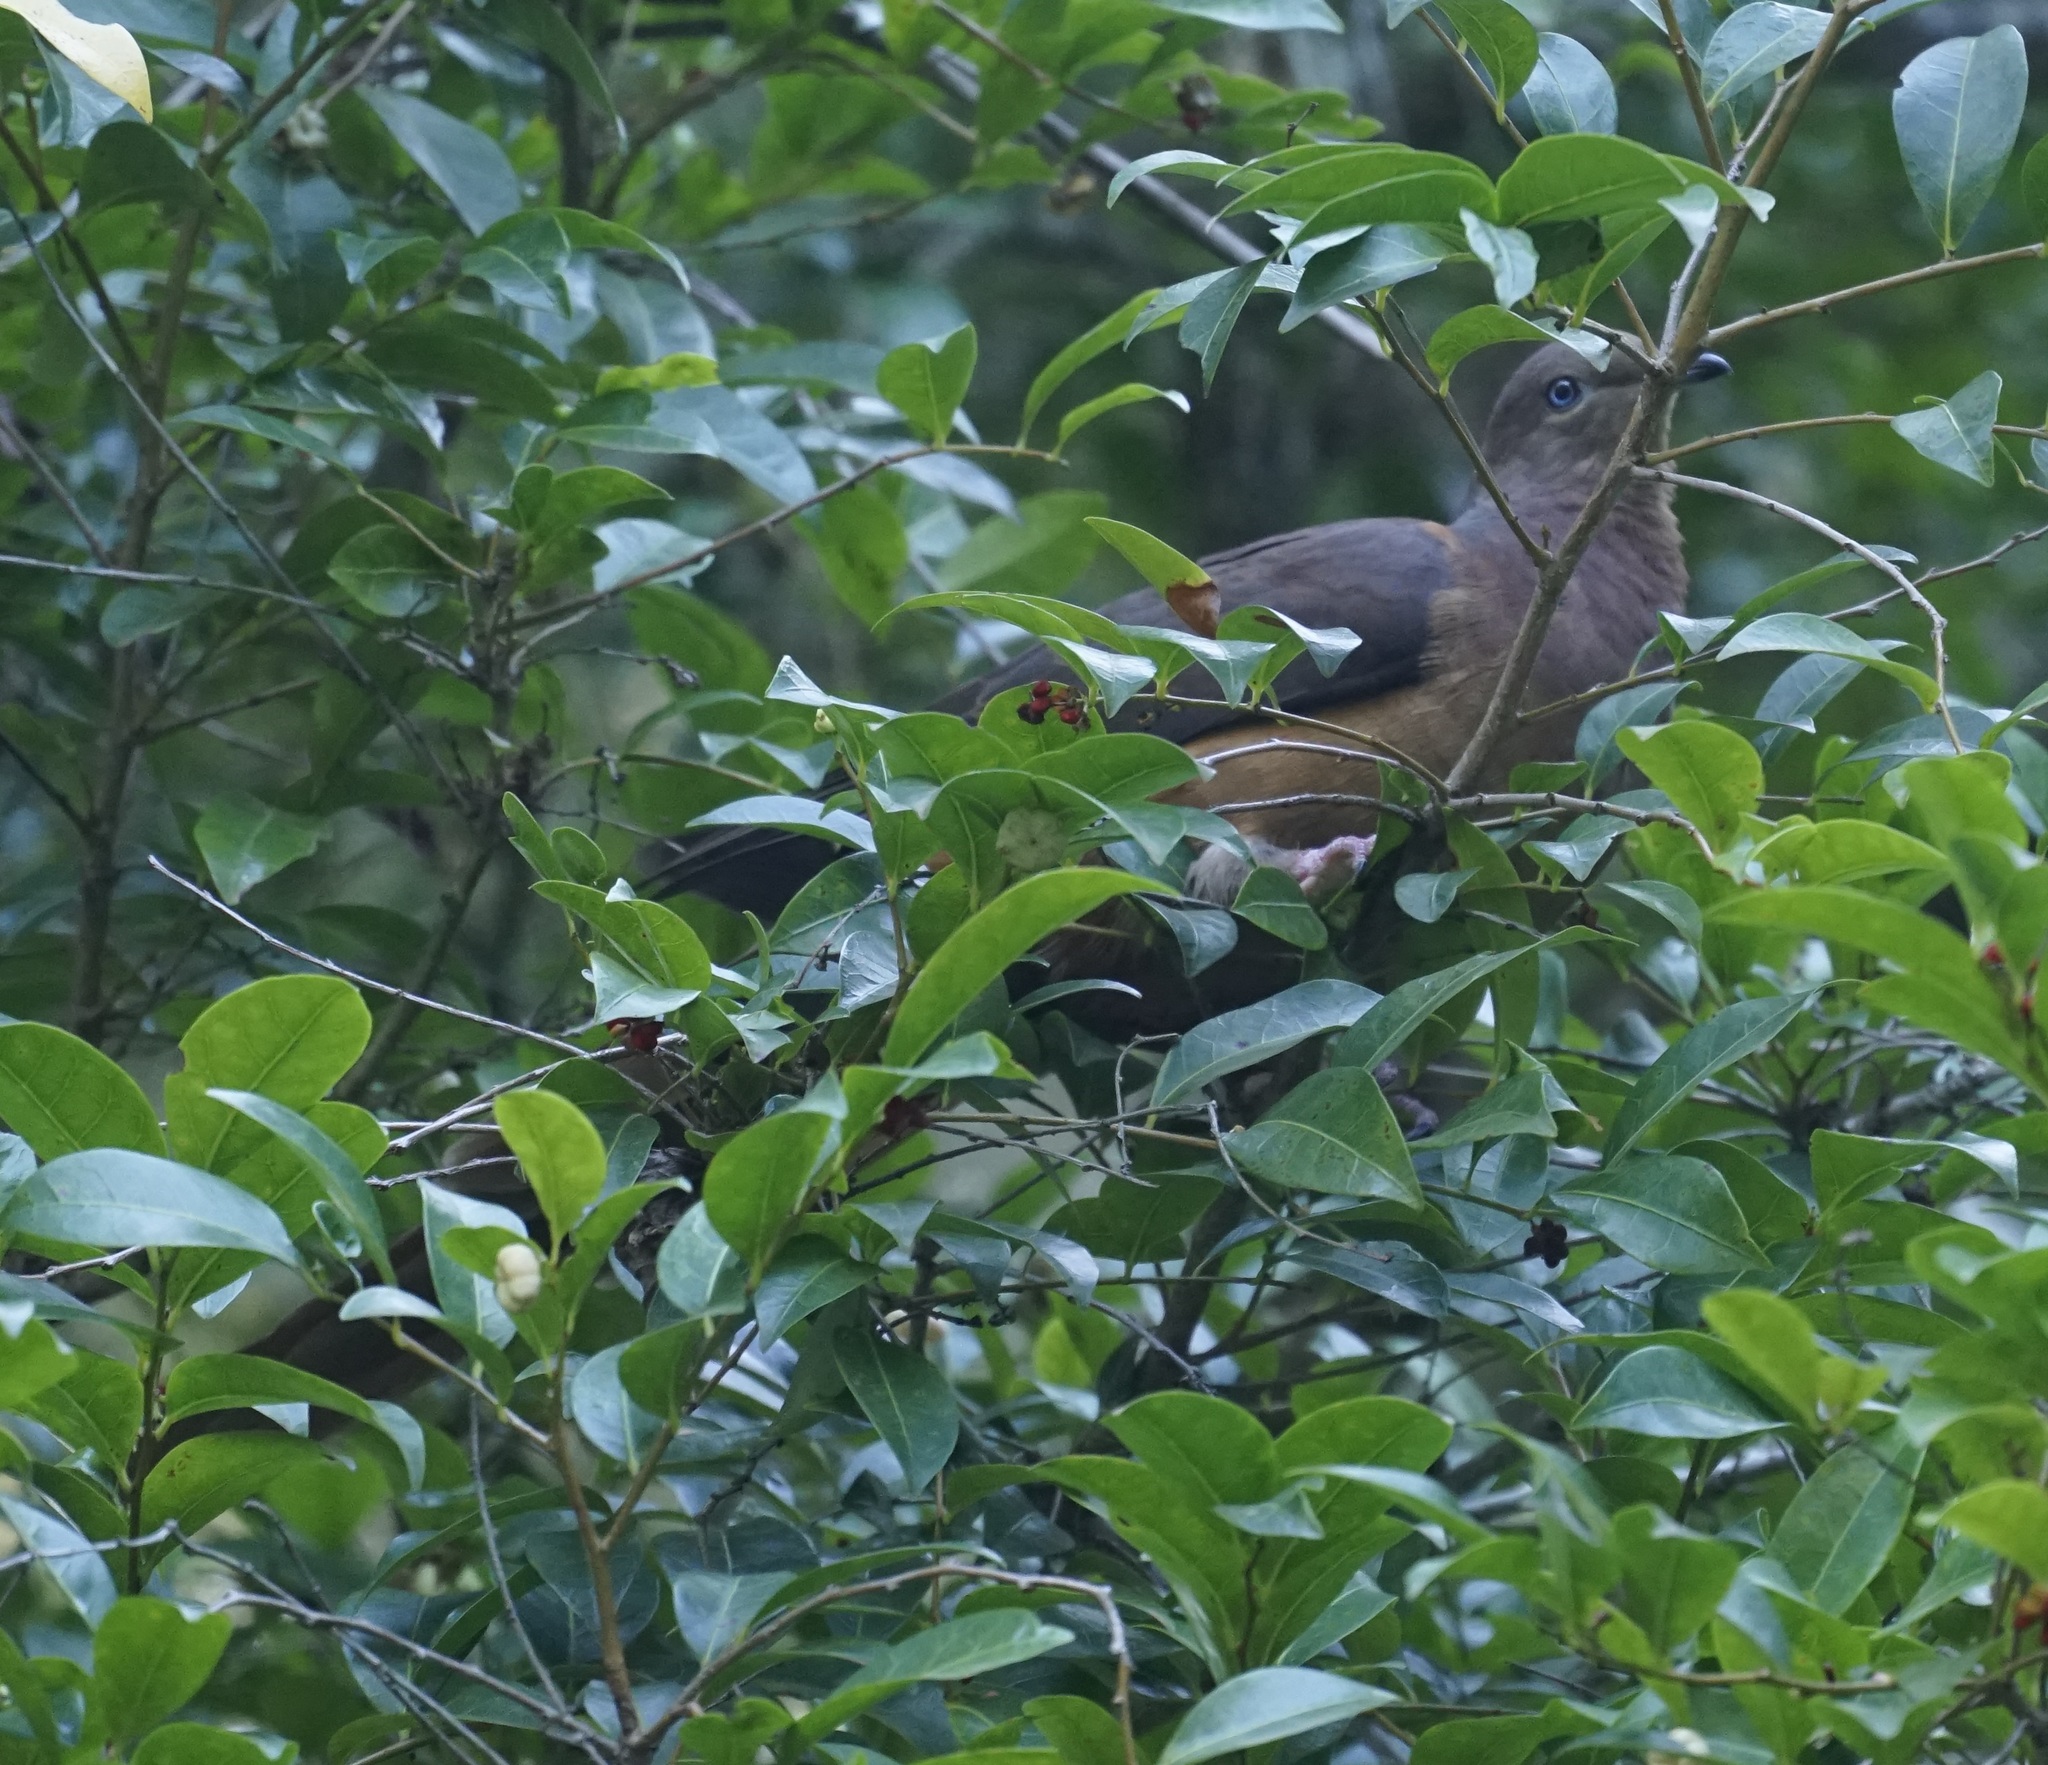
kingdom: Animalia
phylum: Chordata
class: Aves
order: Columbiformes
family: Columbidae
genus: Macropygia
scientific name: Macropygia phasianella
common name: Brown cuckoo-dove
